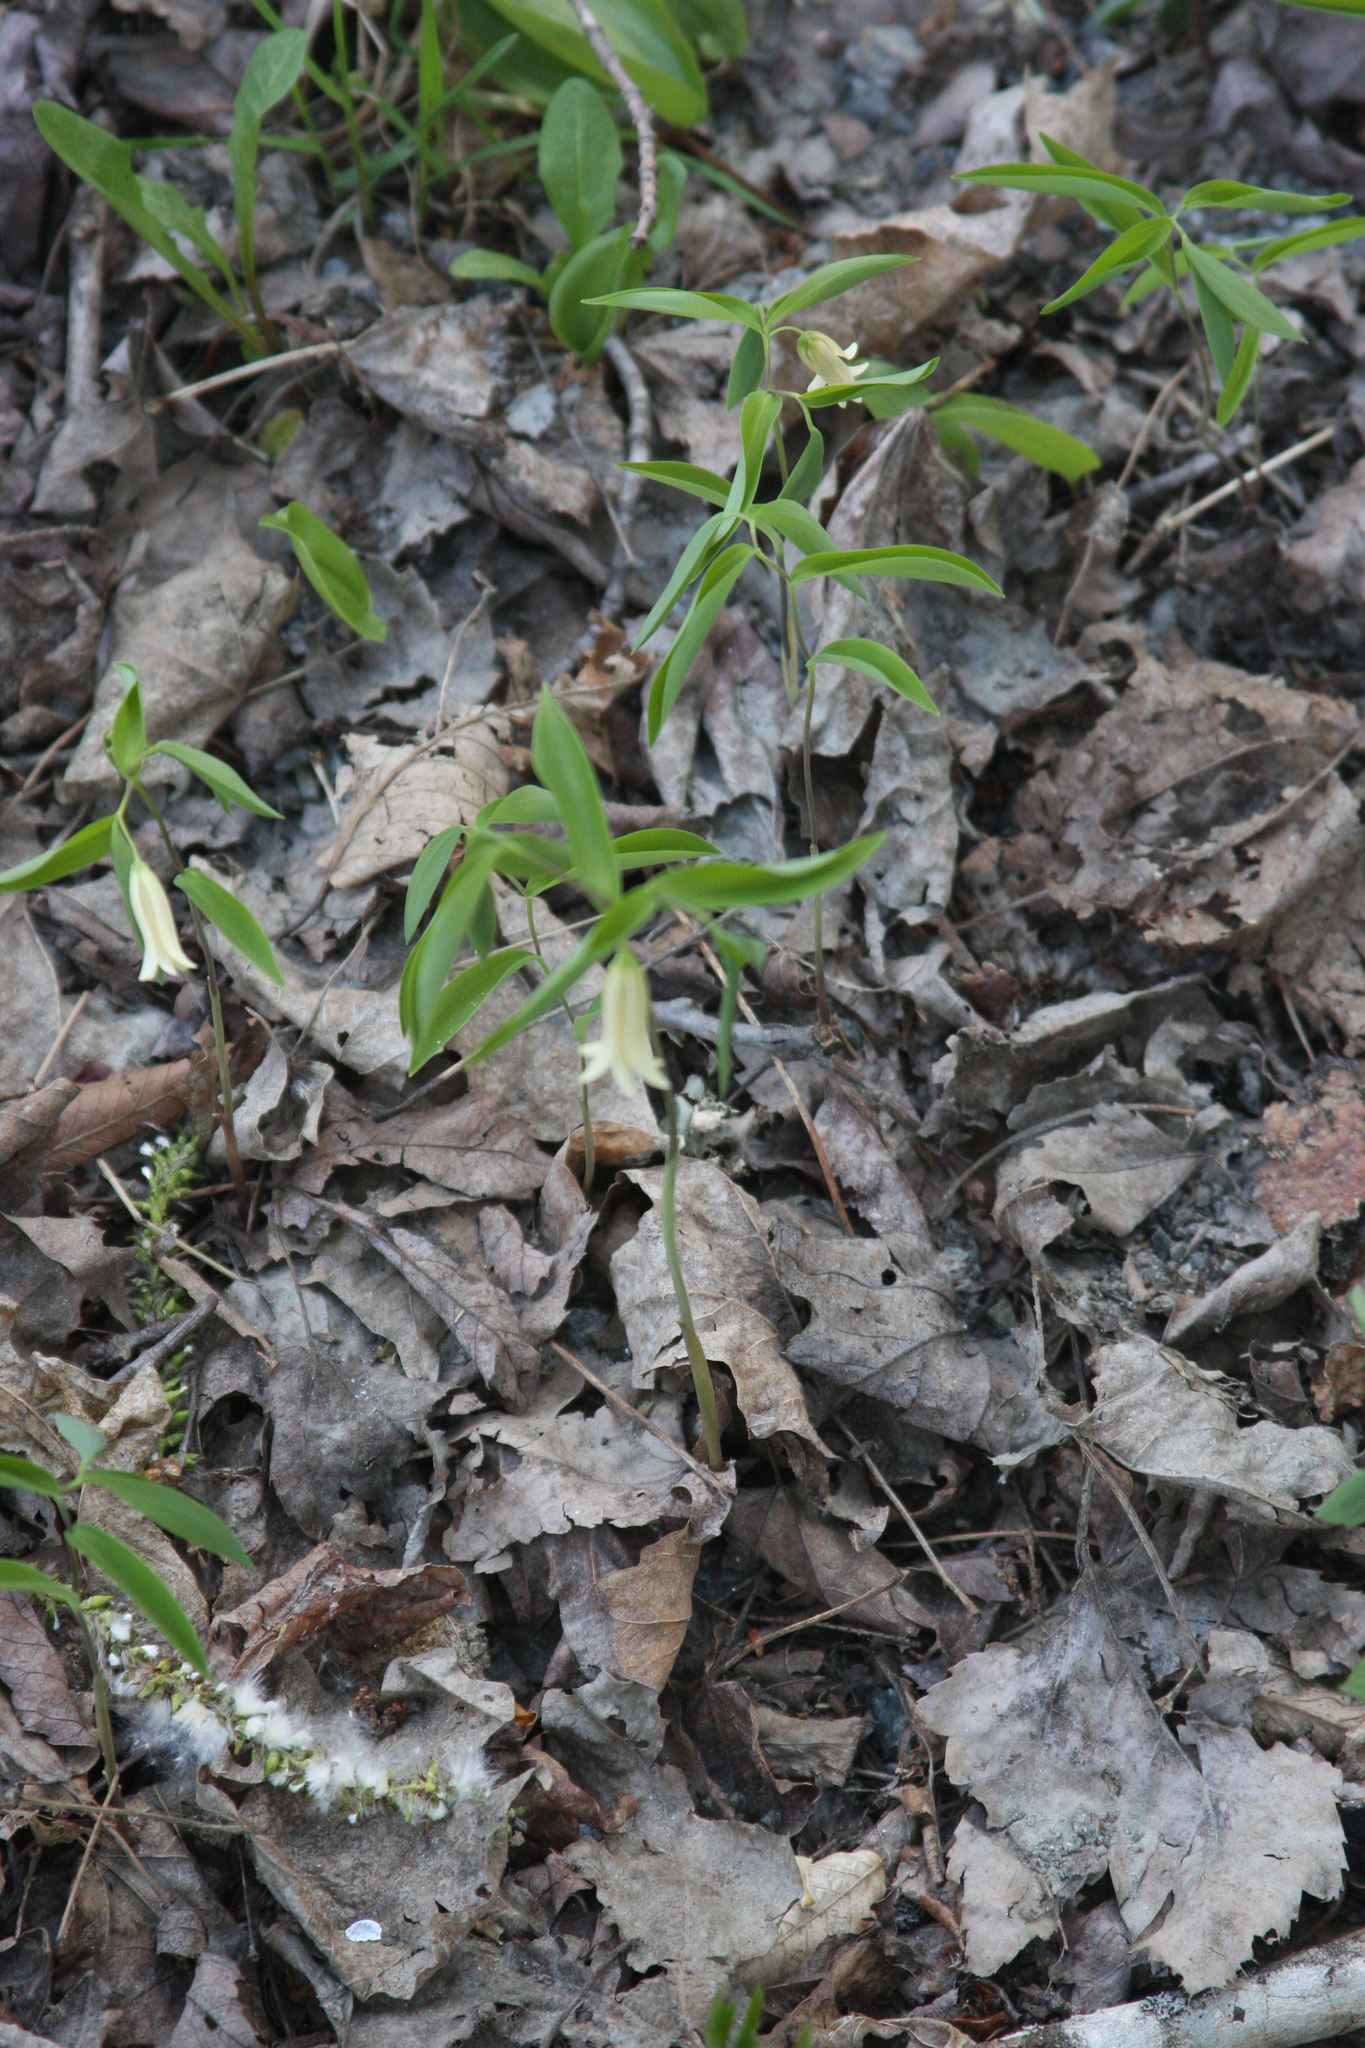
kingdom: Plantae
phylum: Tracheophyta
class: Liliopsida
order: Liliales
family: Colchicaceae
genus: Uvularia
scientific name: Uvularia sessilifolia
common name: Straw-lily
